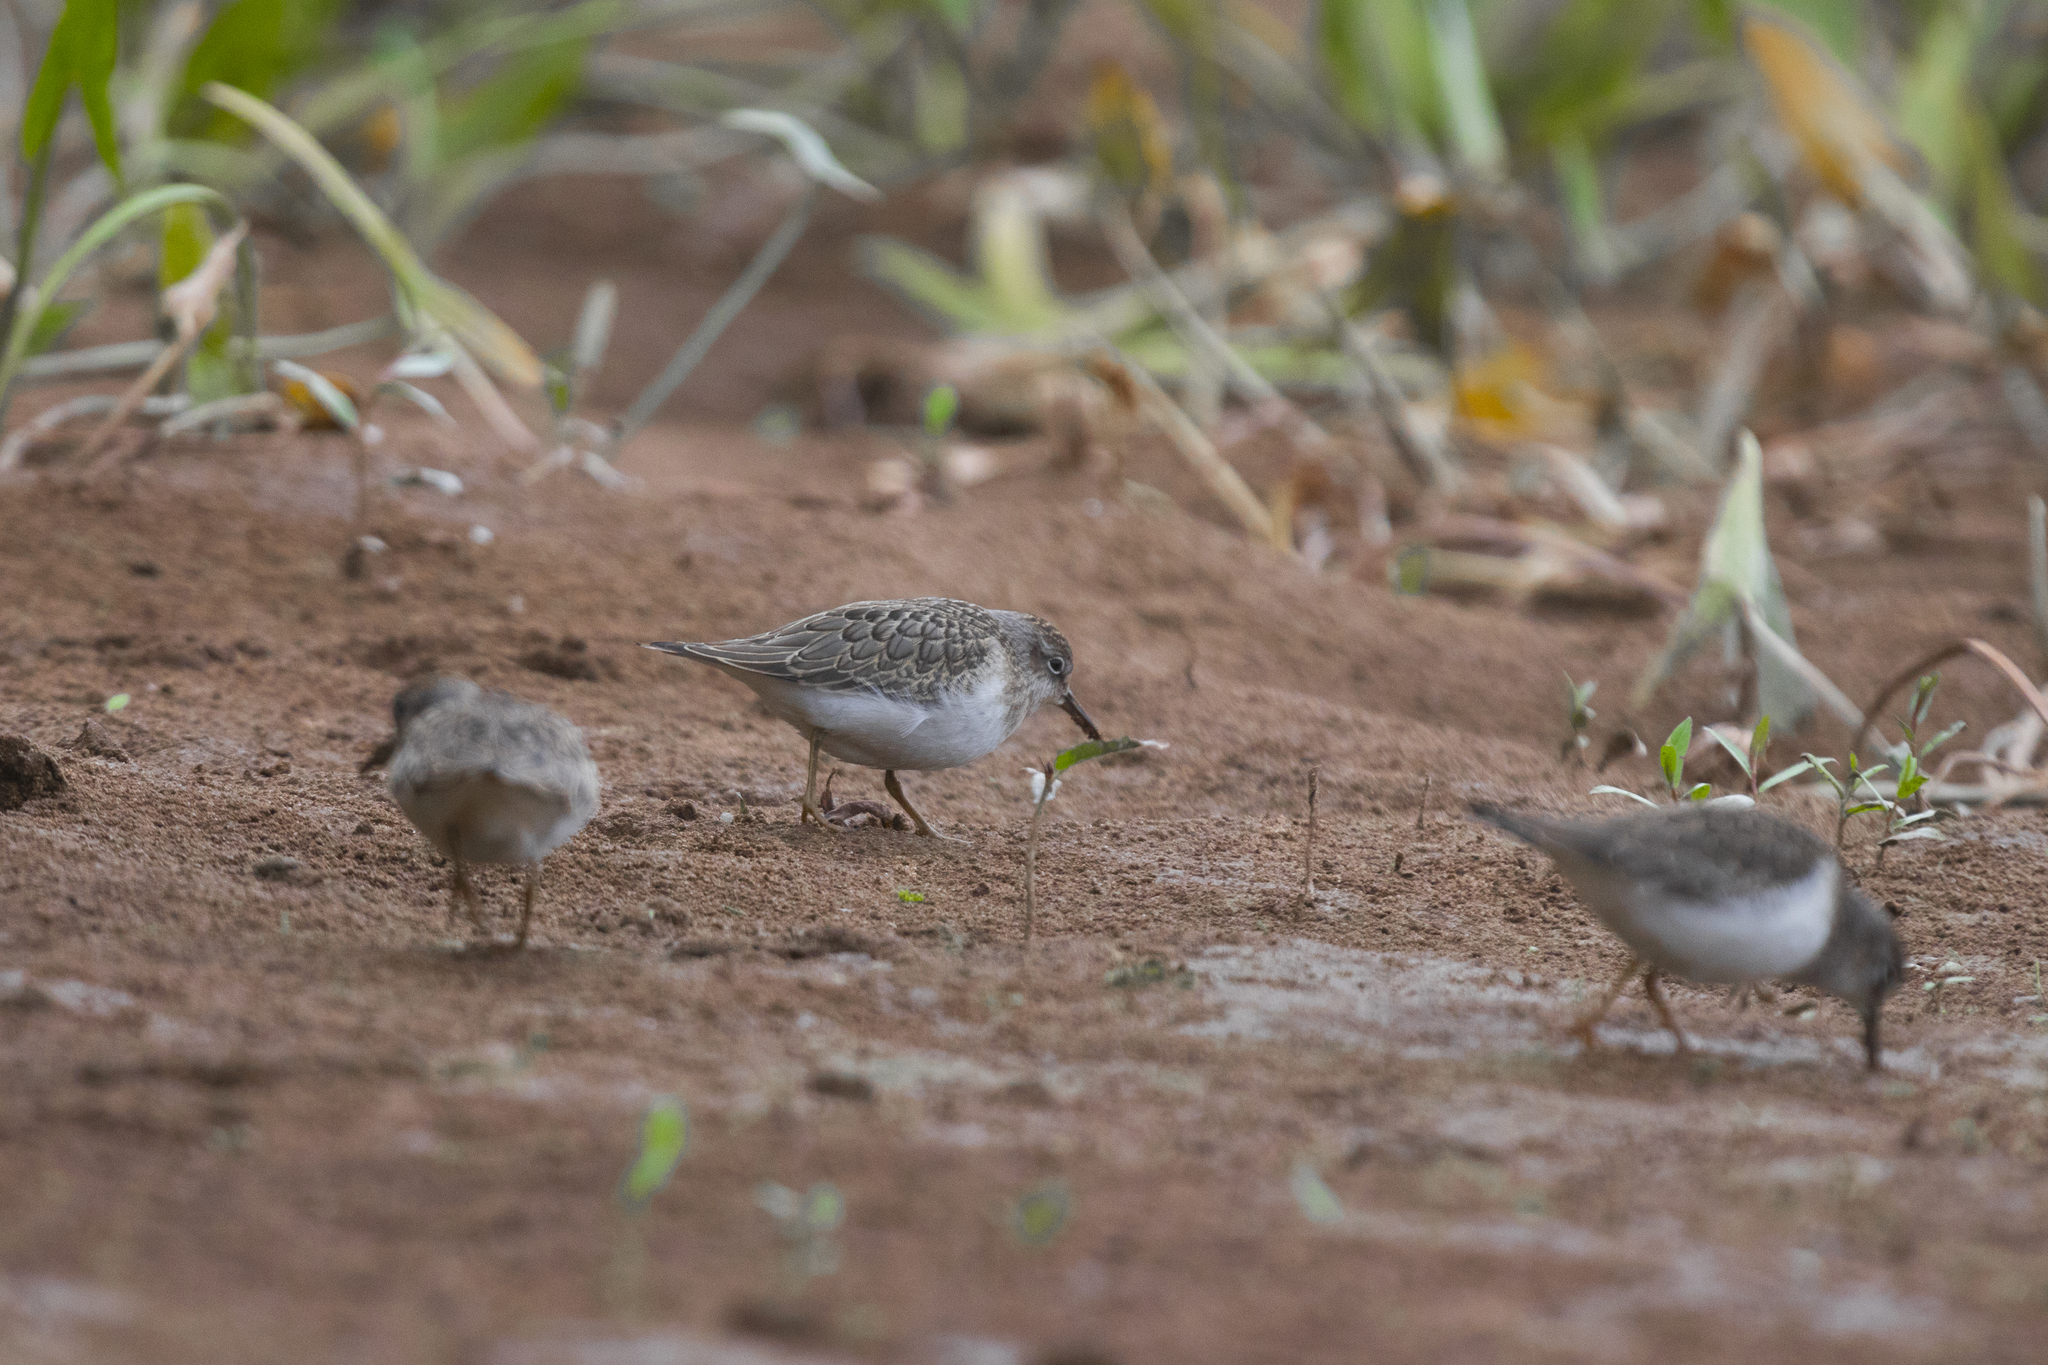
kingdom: Animalia
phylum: Chordata
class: Aves
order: Charadriiformes
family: Scolopacidae
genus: Calidris
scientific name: Calidris temminckii
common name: Temminck's stint
